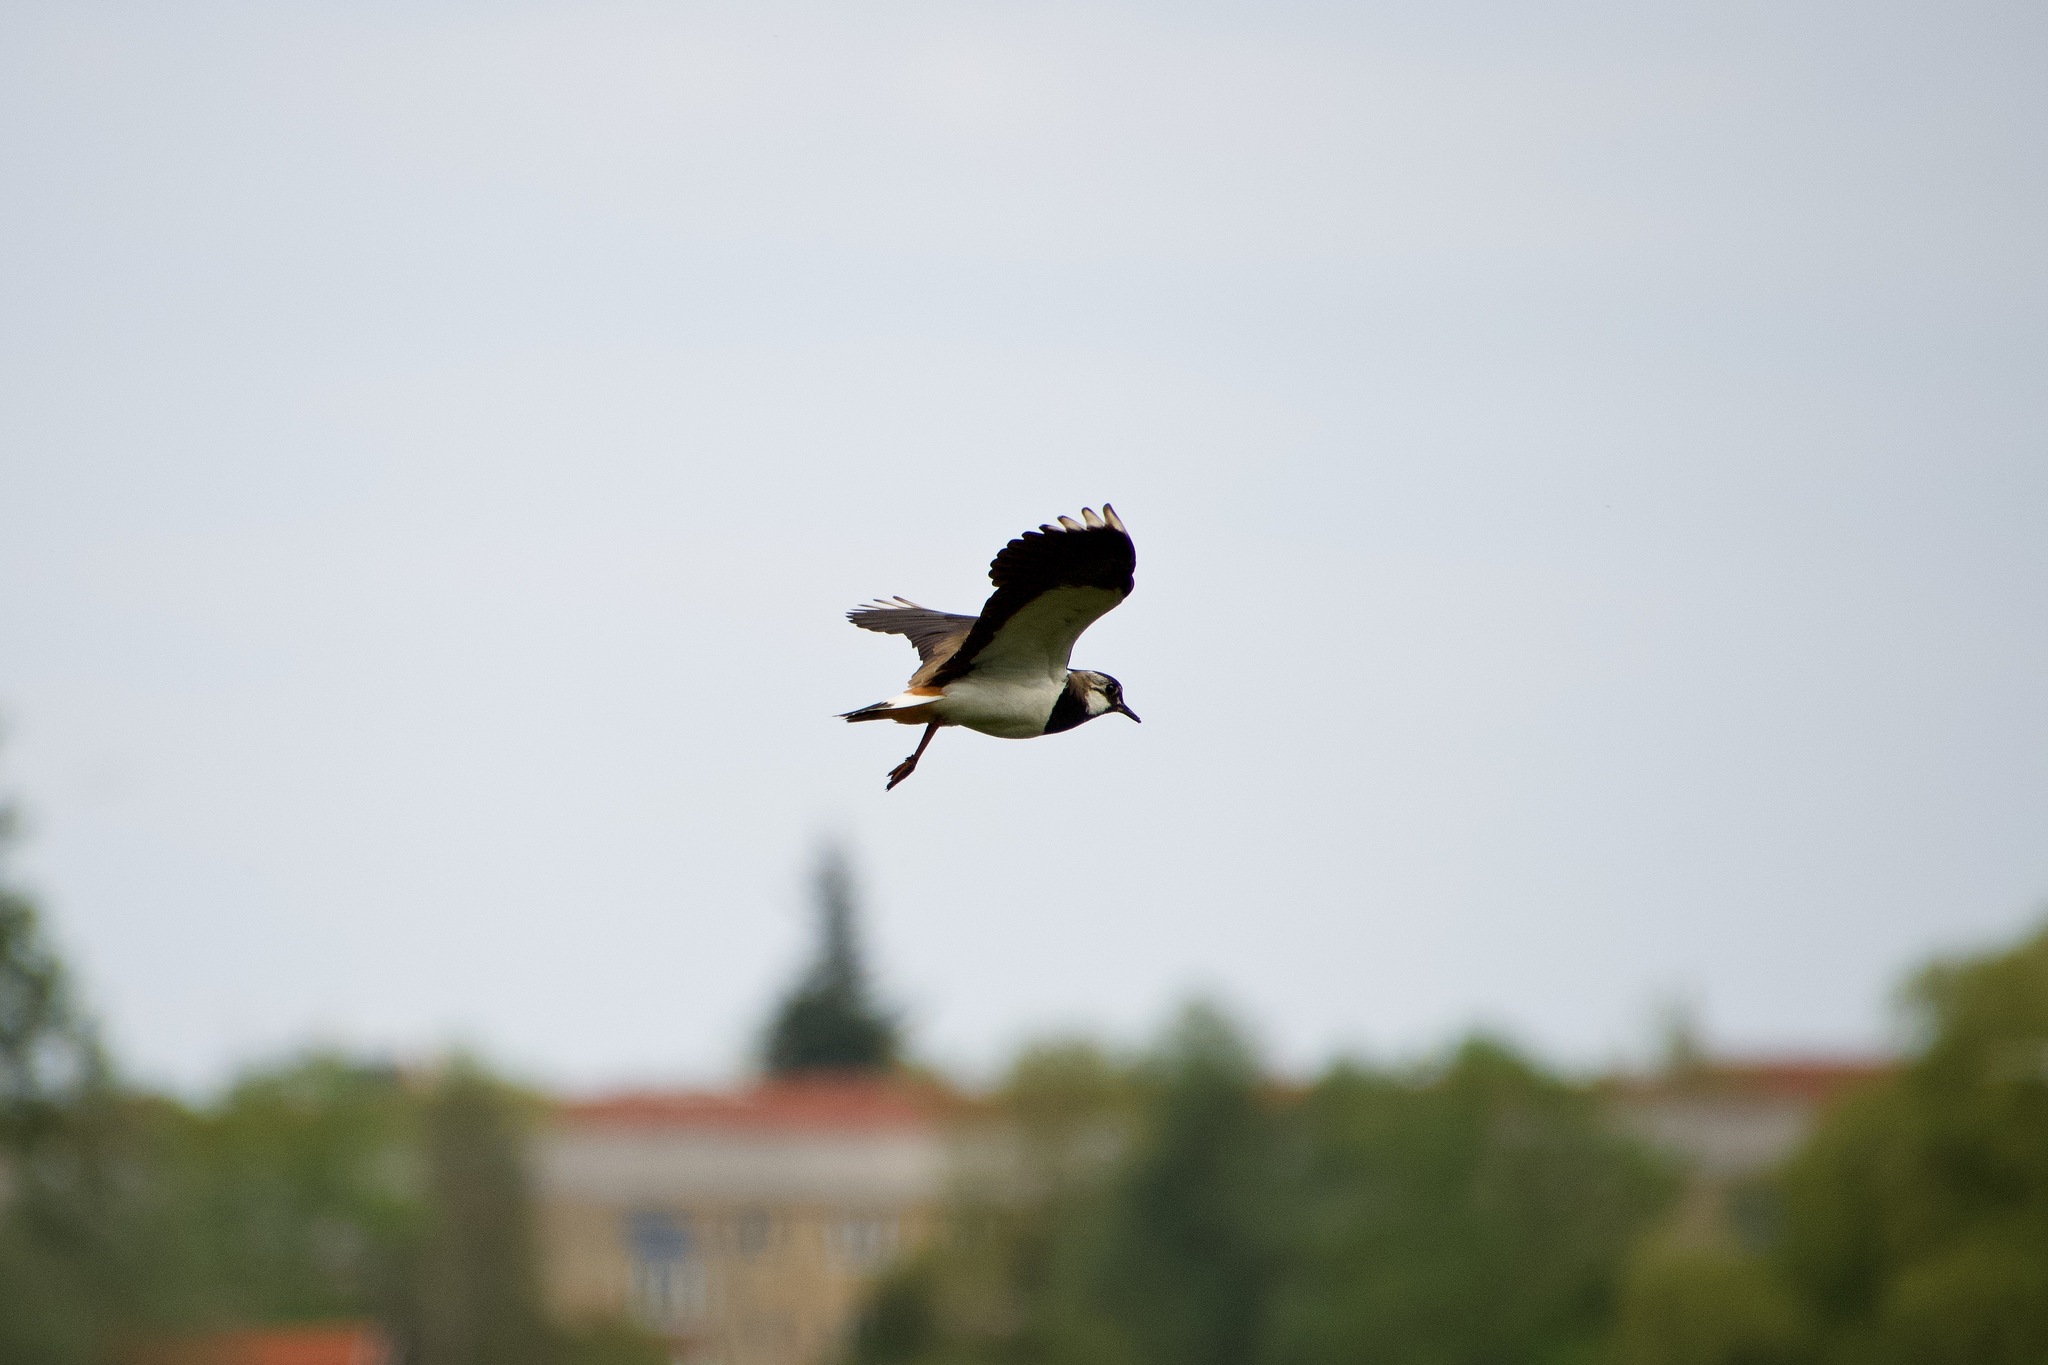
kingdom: Animalia
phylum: Chordata
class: Aves
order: Charadriiformes
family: Charadriidae
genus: Vanellus
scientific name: Vanellus vanellus
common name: Northern lapwing
